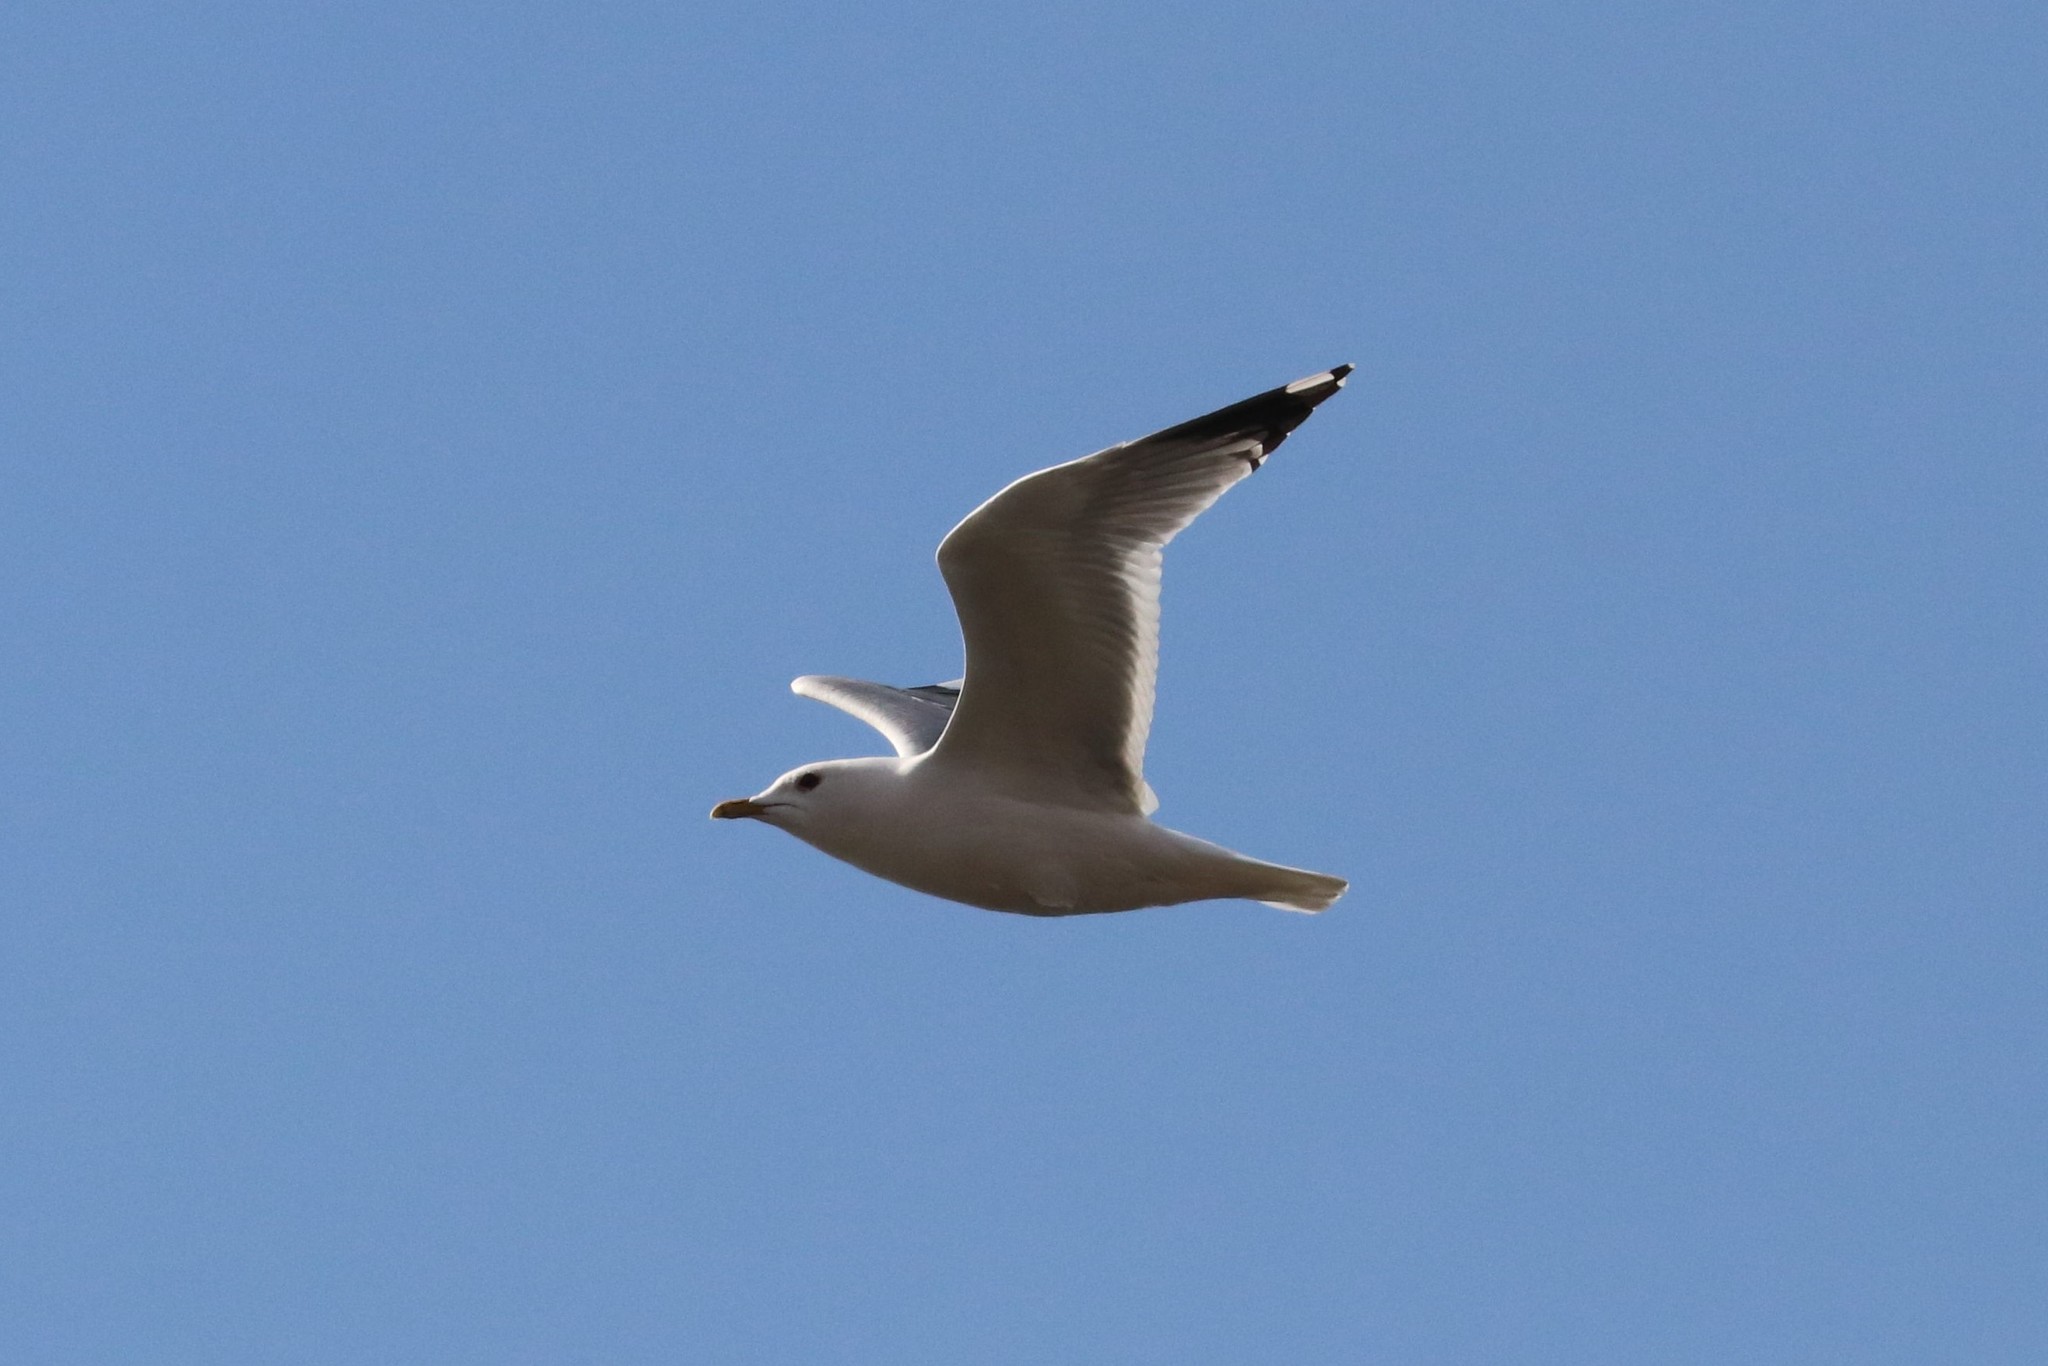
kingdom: Animalia
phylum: Chordata
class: Aves
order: Charadriiformes
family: Laridae
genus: Larus
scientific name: Larus canus
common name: Mew gull
